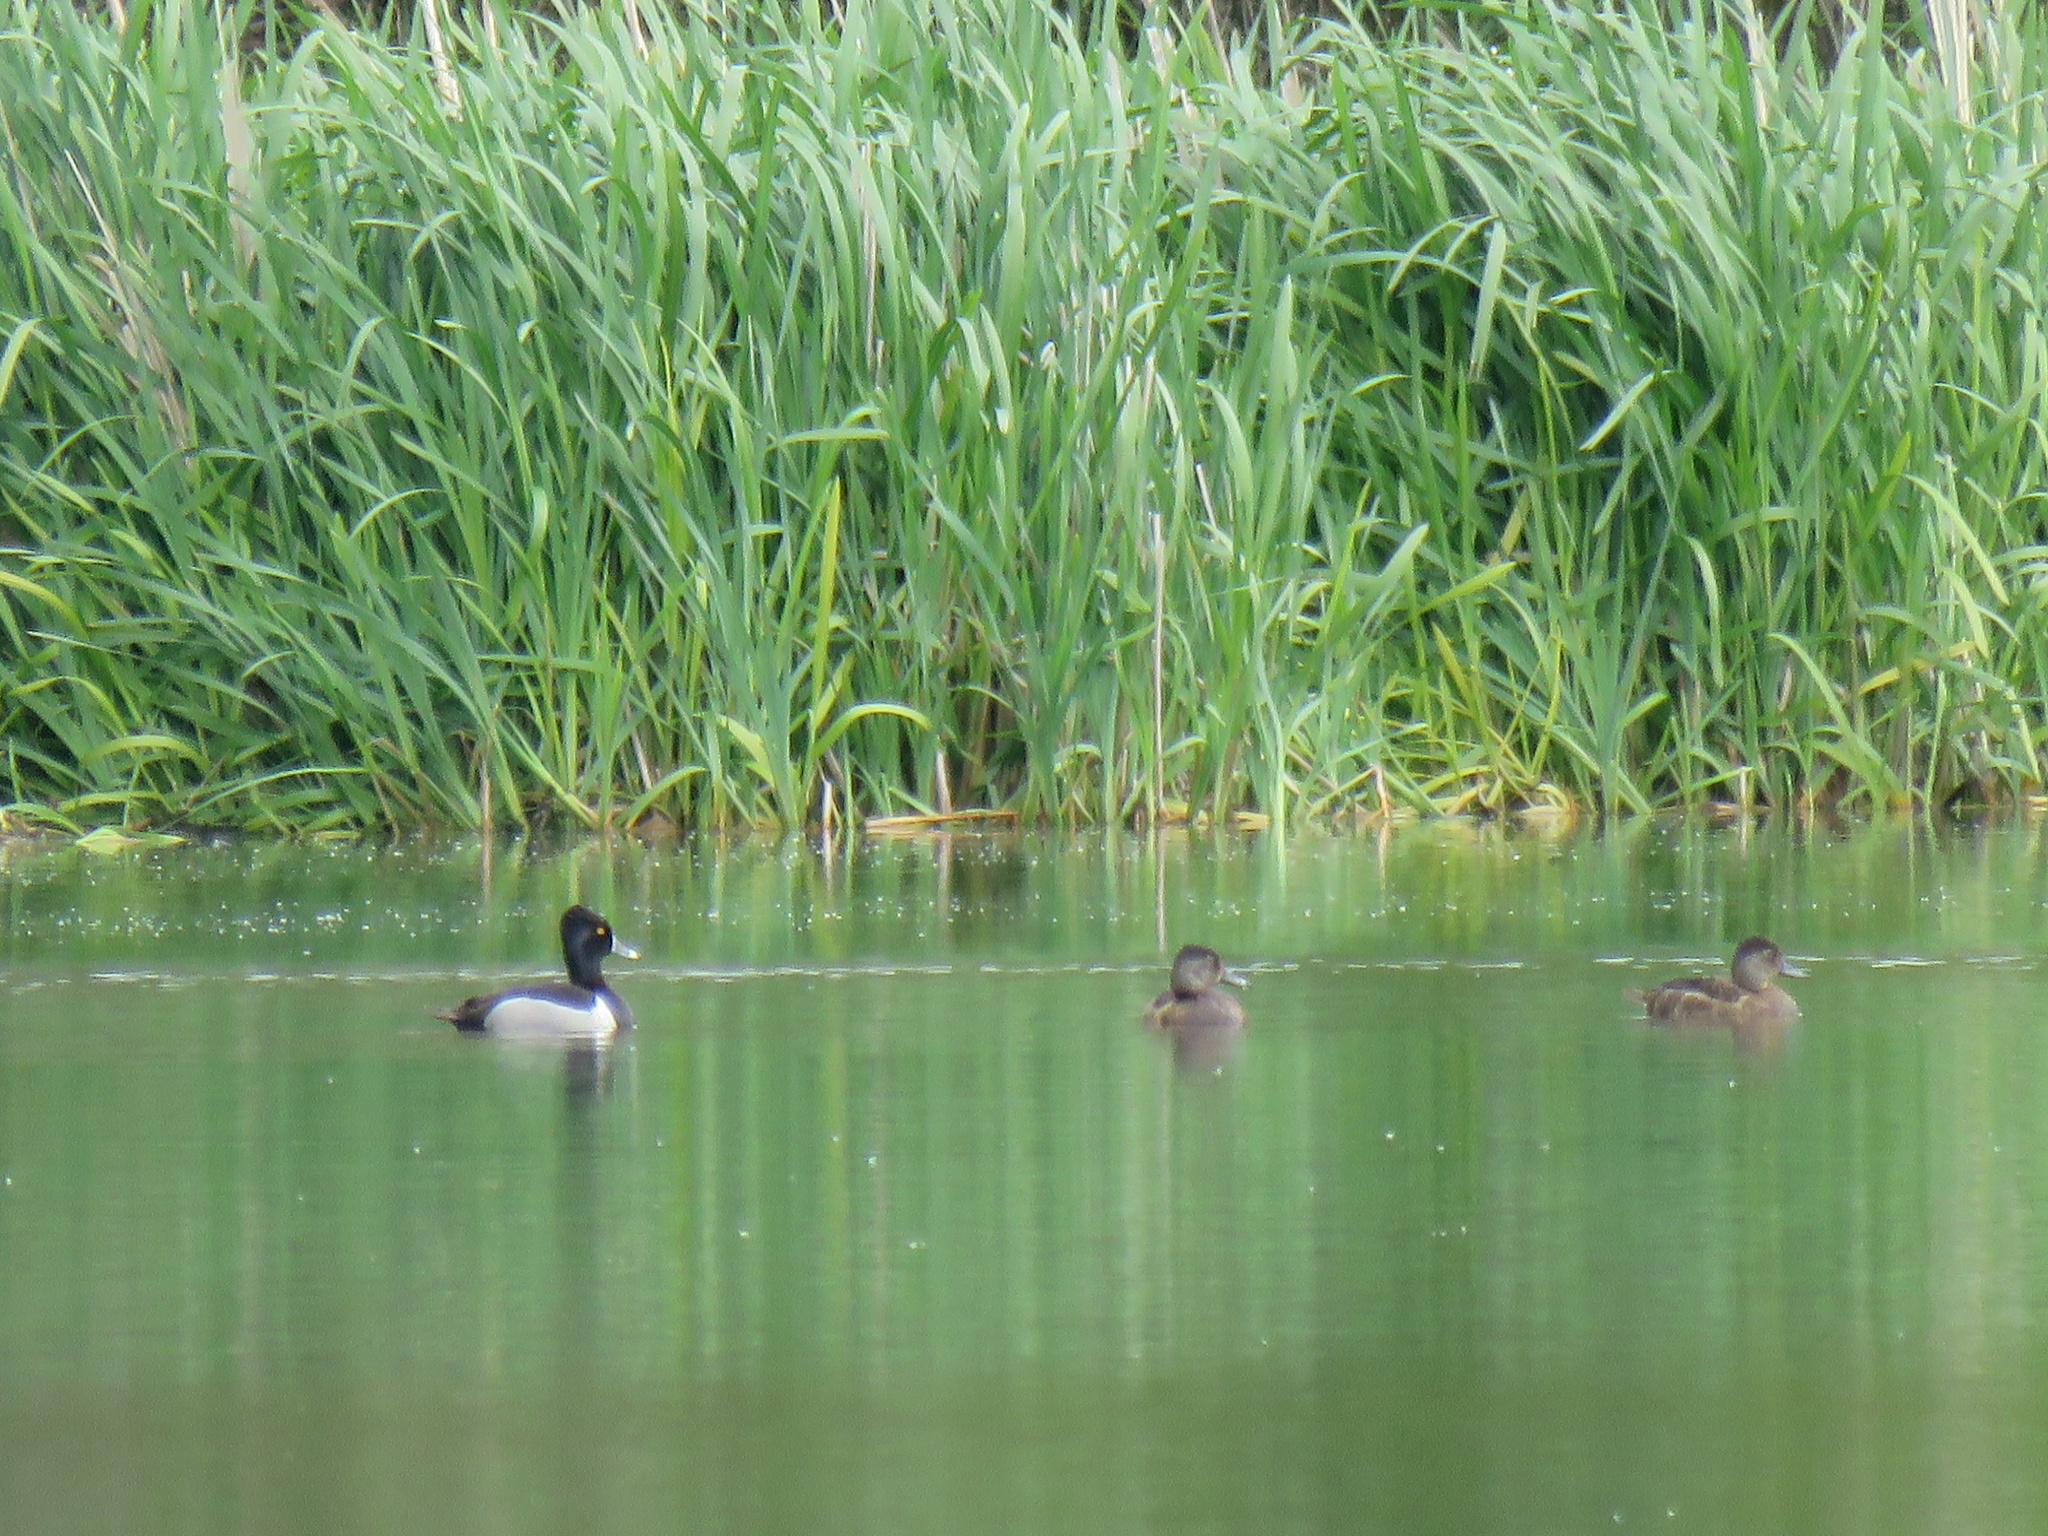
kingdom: Animalia
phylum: Chordata
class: Aves
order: Anseriformes
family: Anatidae
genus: Aythya
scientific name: Aythya collaris
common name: Ring-necked duck
